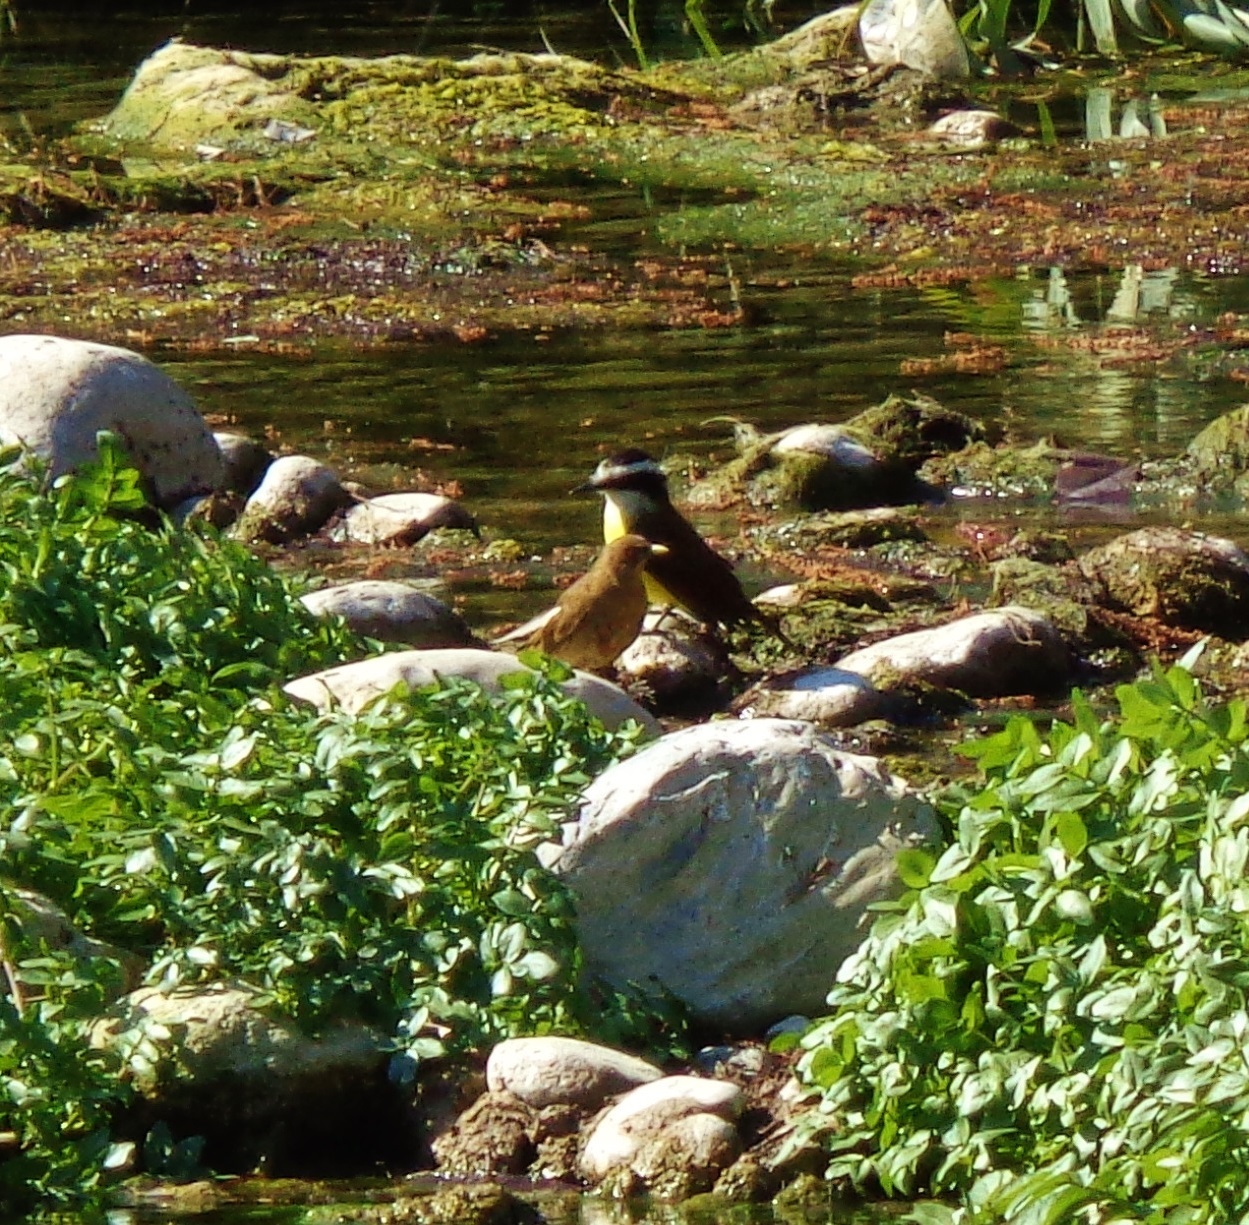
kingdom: Animalia
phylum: Chordata
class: Aves
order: Passeriformes
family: Tyrannidae
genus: Pitangus
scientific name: Pitangus sulphuratus
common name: Great kiskadee
